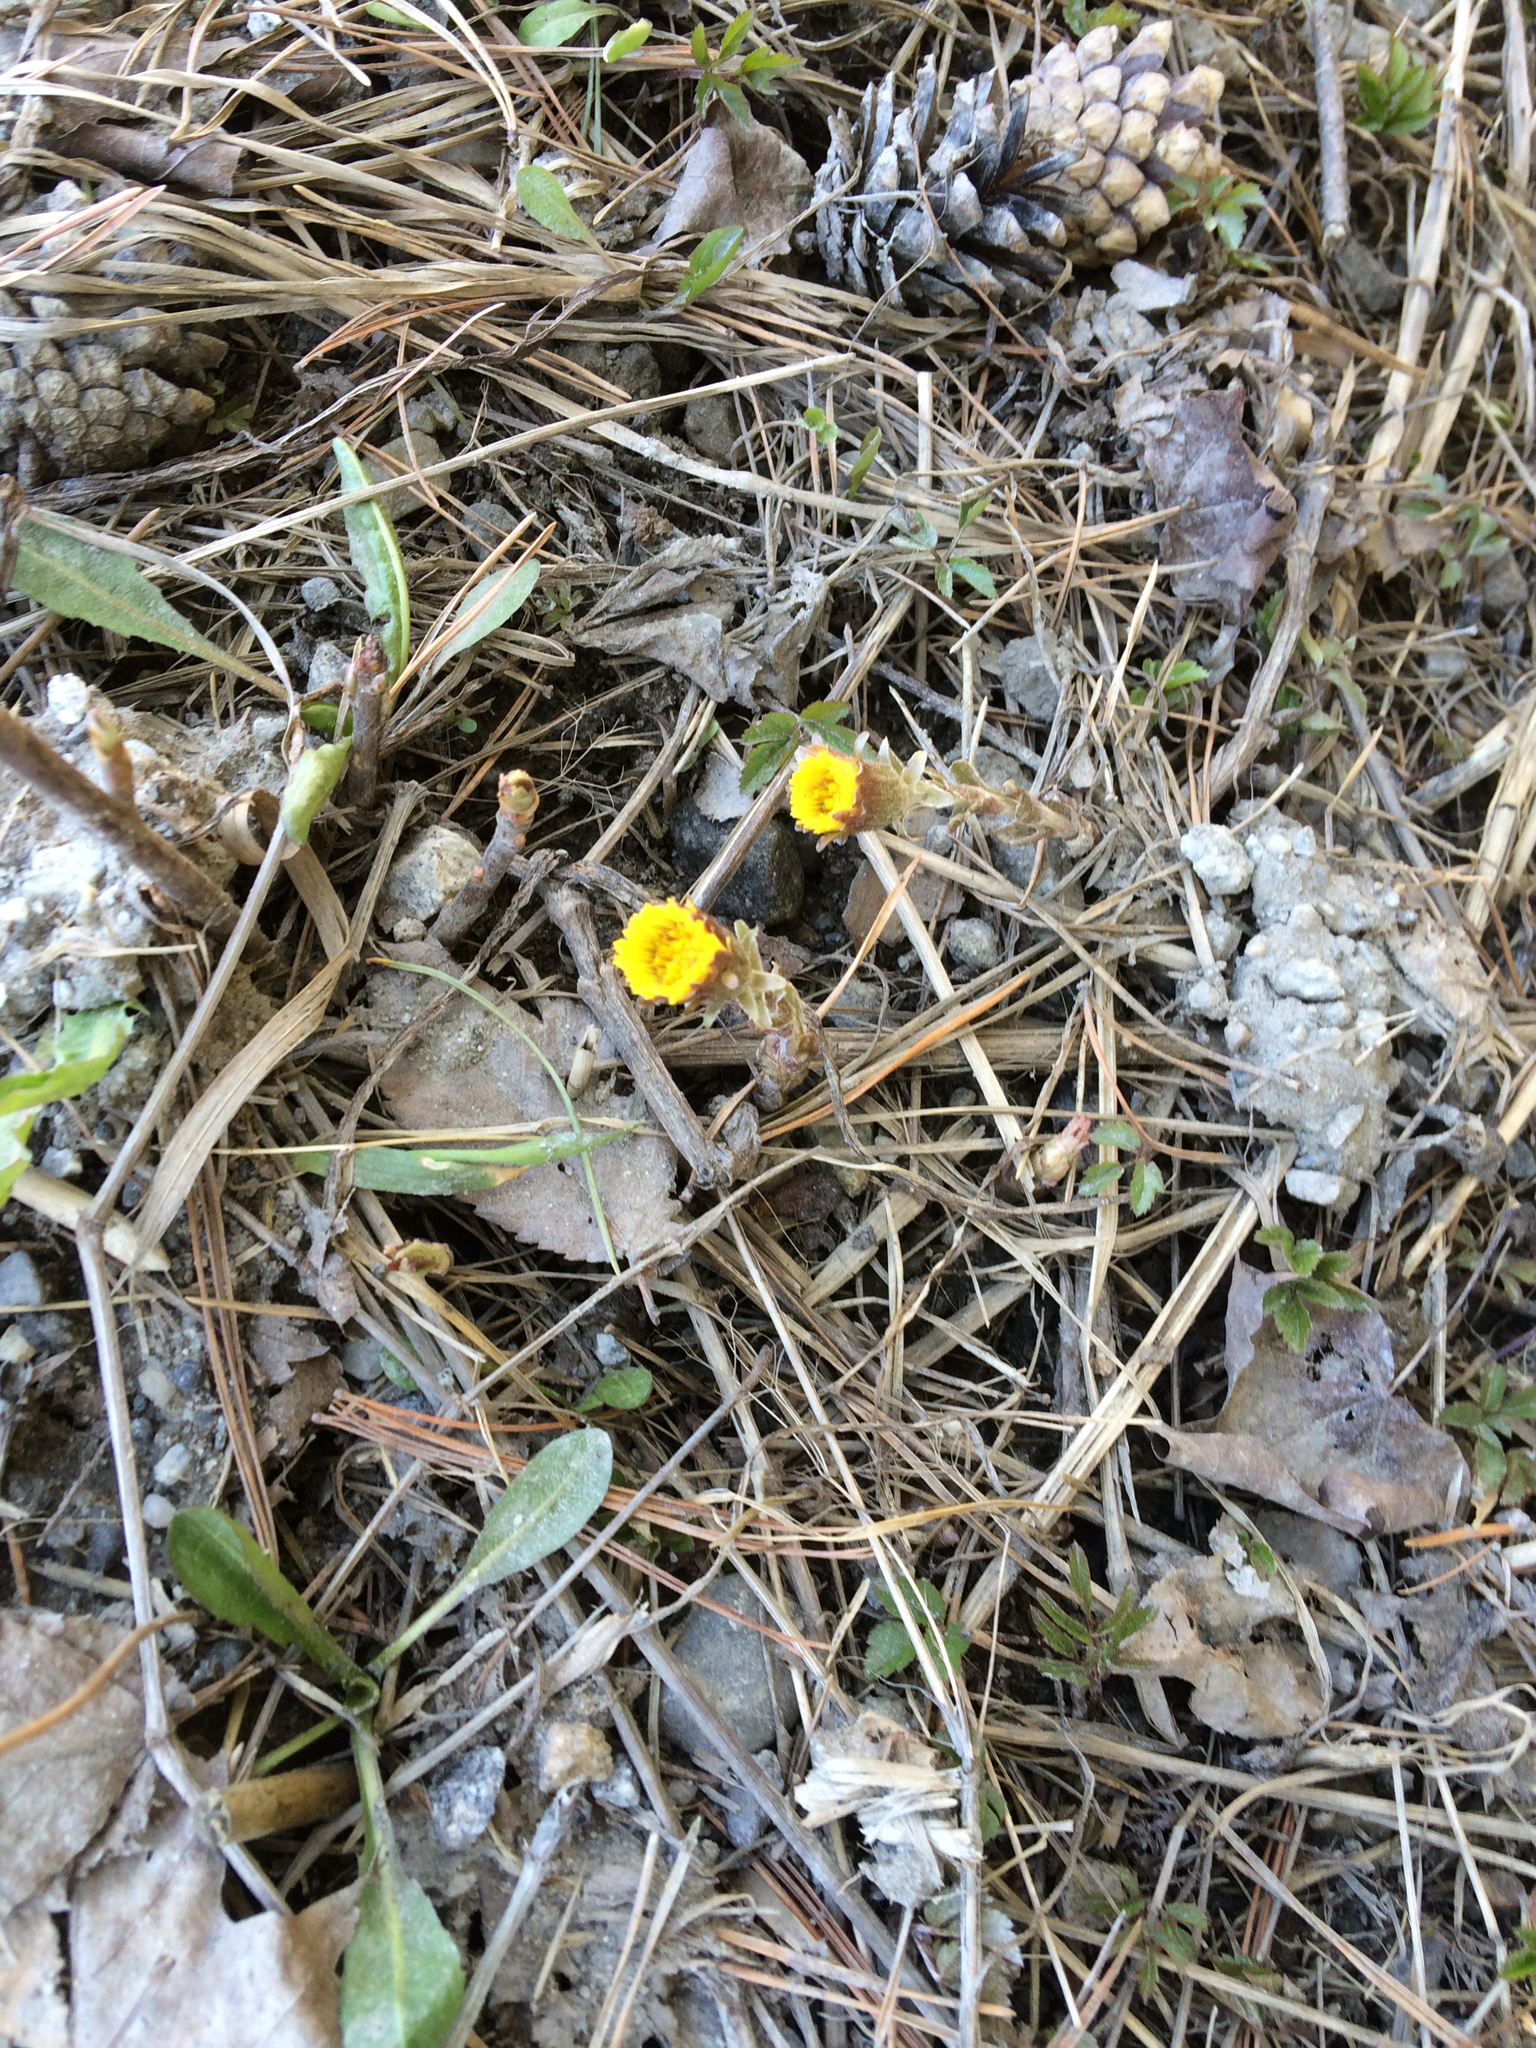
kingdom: Plantae
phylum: Tracheophyta
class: Magnoliopsida
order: Asterales
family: Asteraceae
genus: Tussilago
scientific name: Tussilago farfara
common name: Coltsfoot
